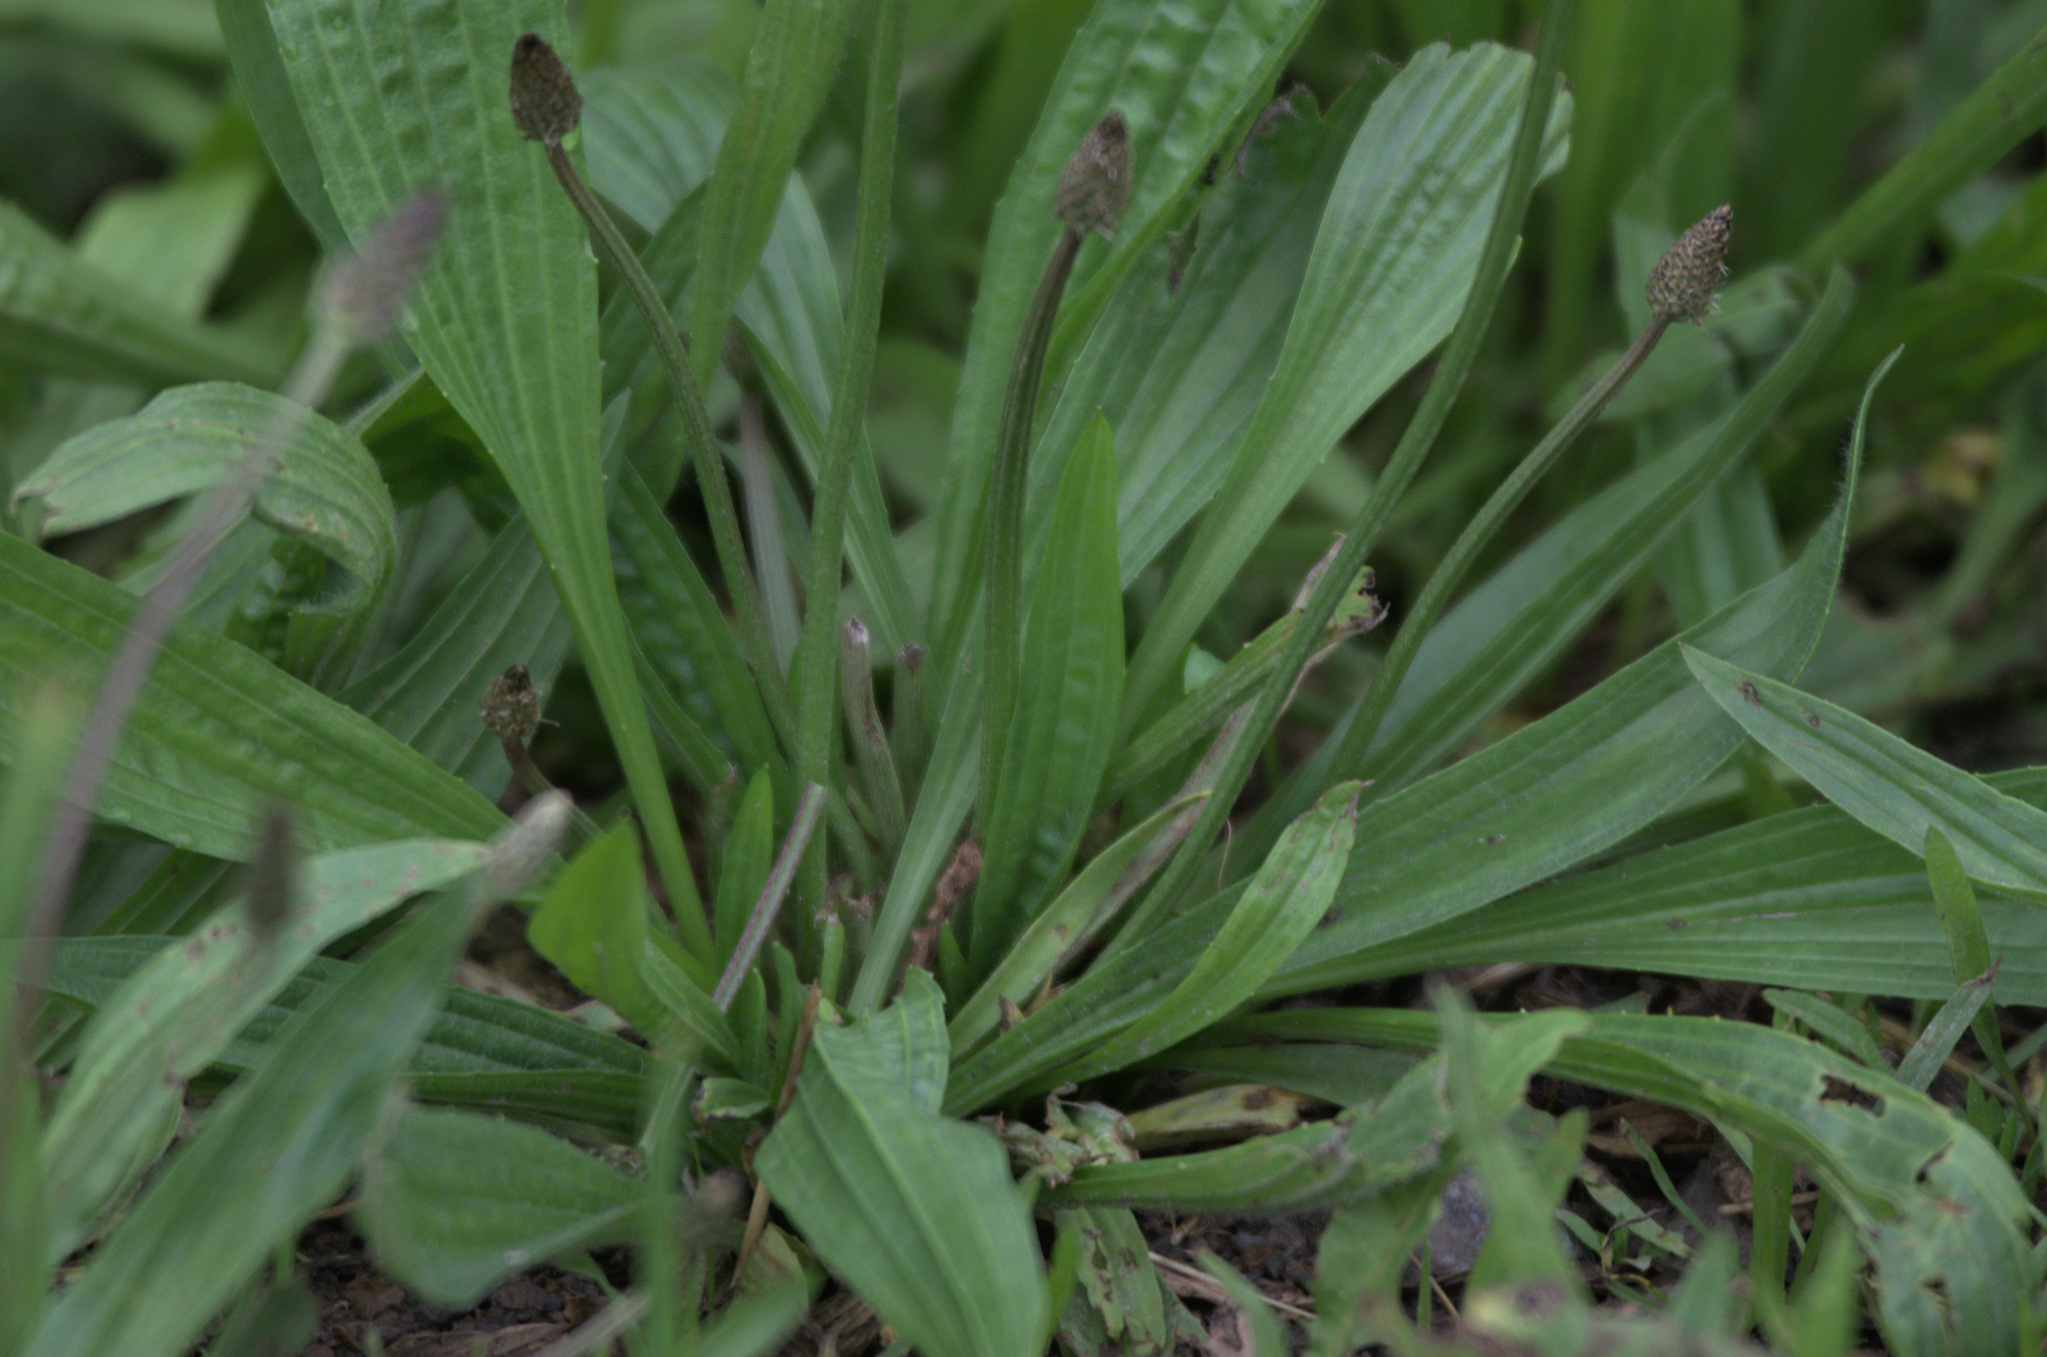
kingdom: Plantae
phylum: Tracheophyta
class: Magnoliopsida
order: Lamiales
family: Plantaginaceae
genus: Plantago
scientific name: Plantago lanceolata
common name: Ribwort plantain
